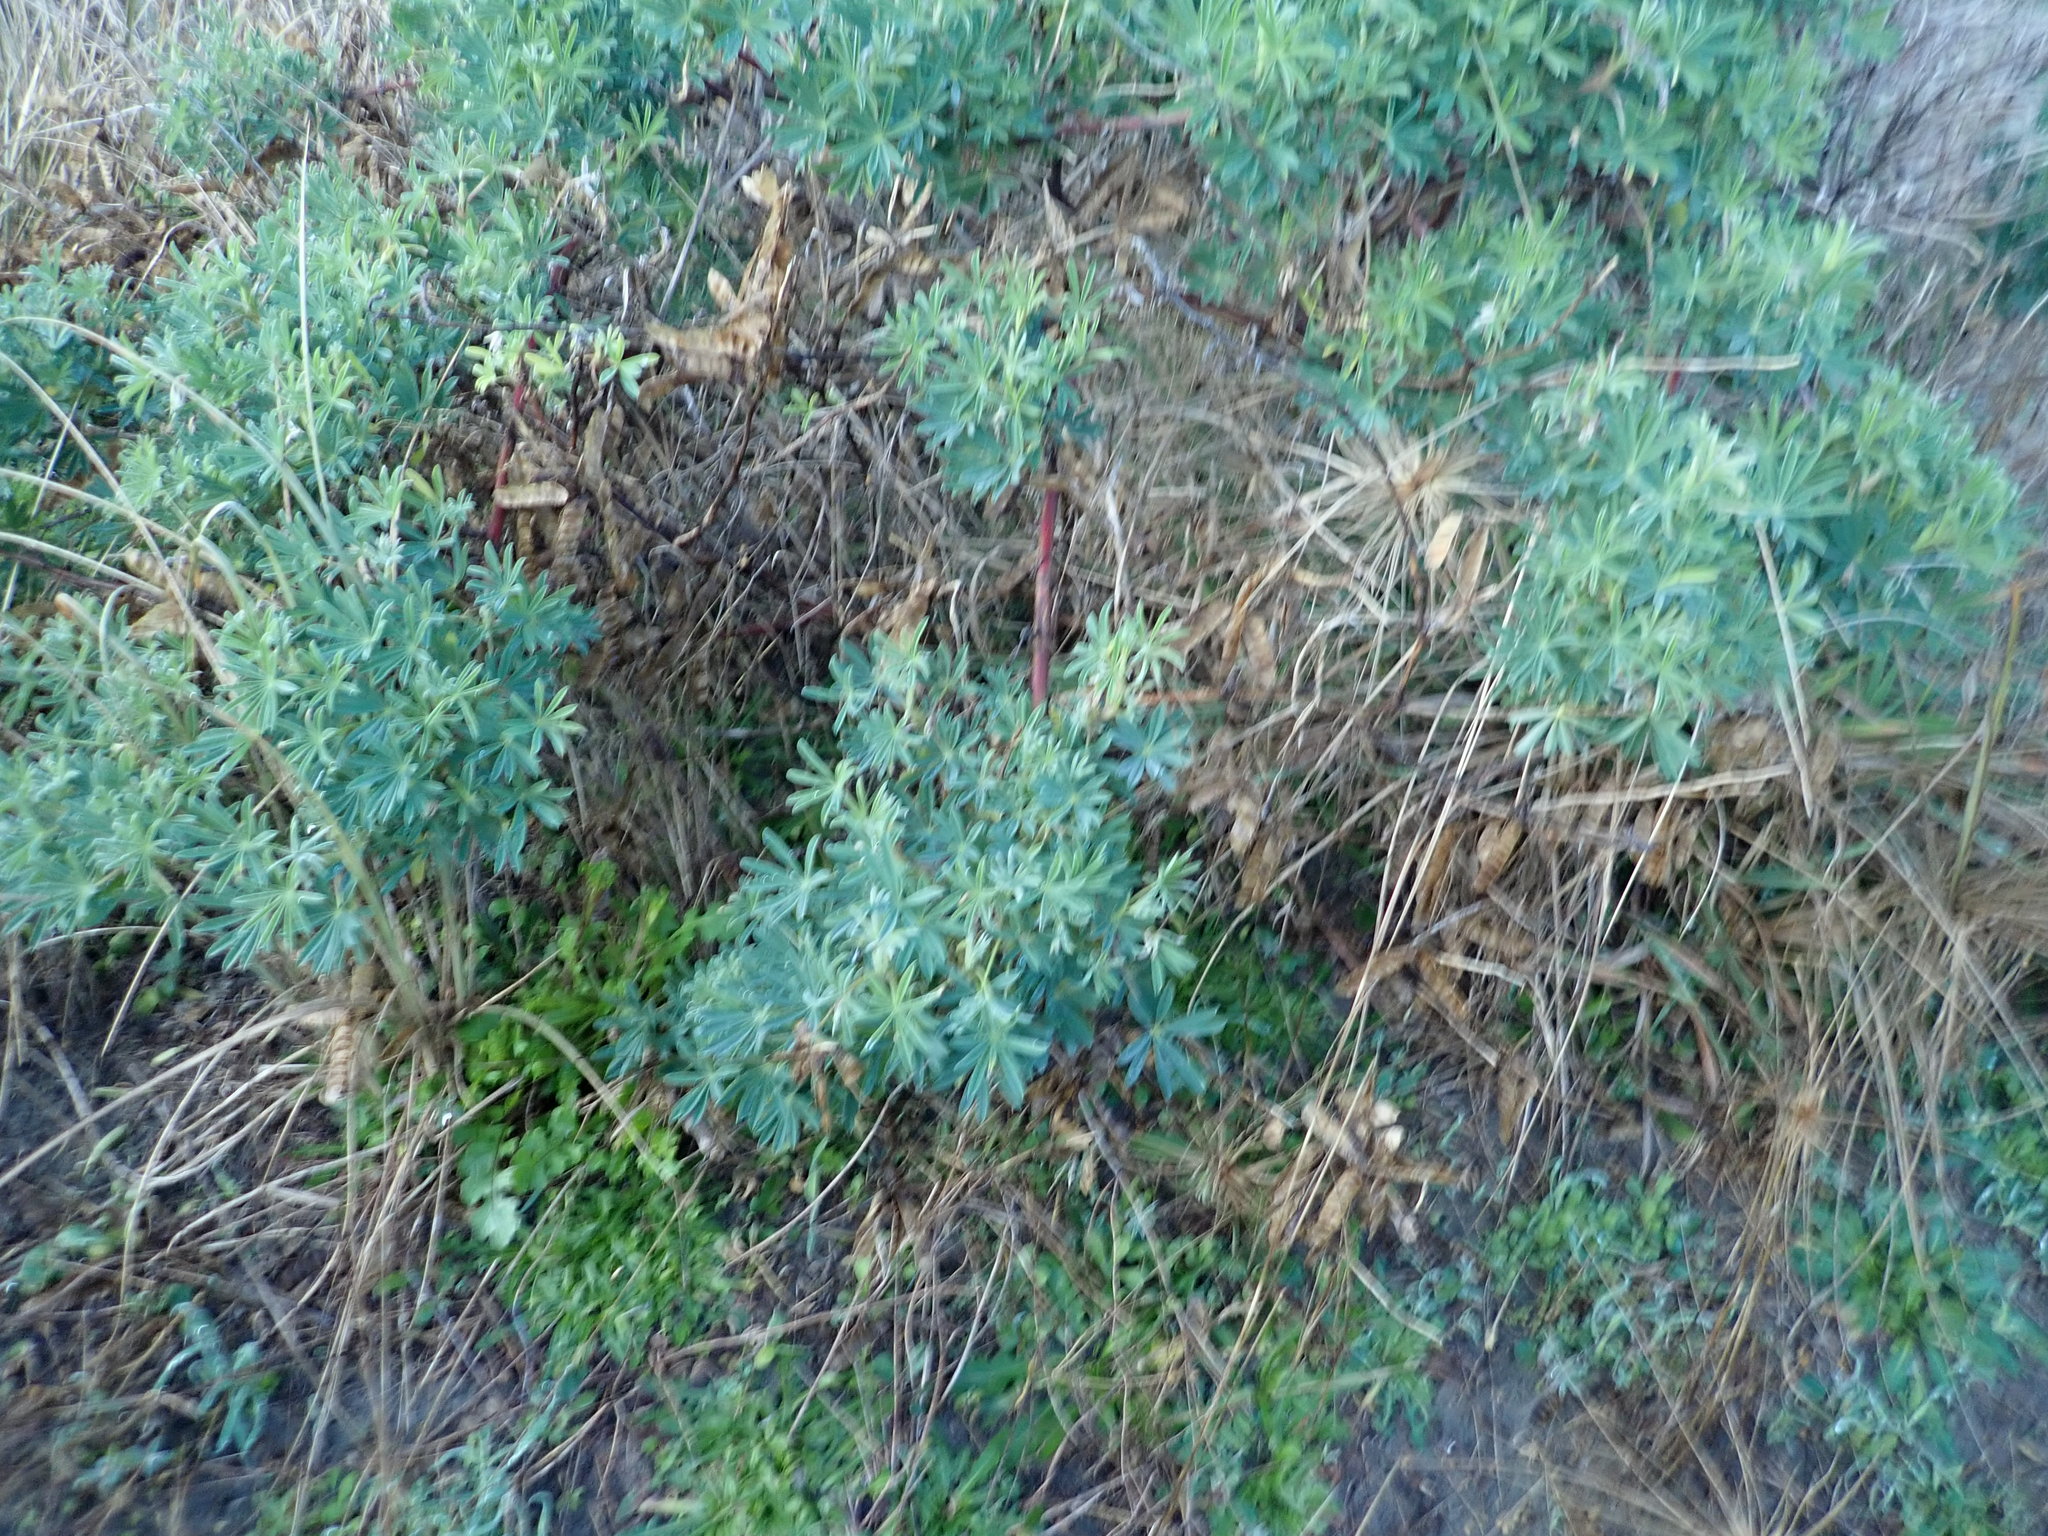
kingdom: Plantae
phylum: Tracheophyta
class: Magnoliopsida
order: Fabales
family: Fabaceae
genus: Lupinus
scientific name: Lupinus arboreus
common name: Yellow bush lupine
